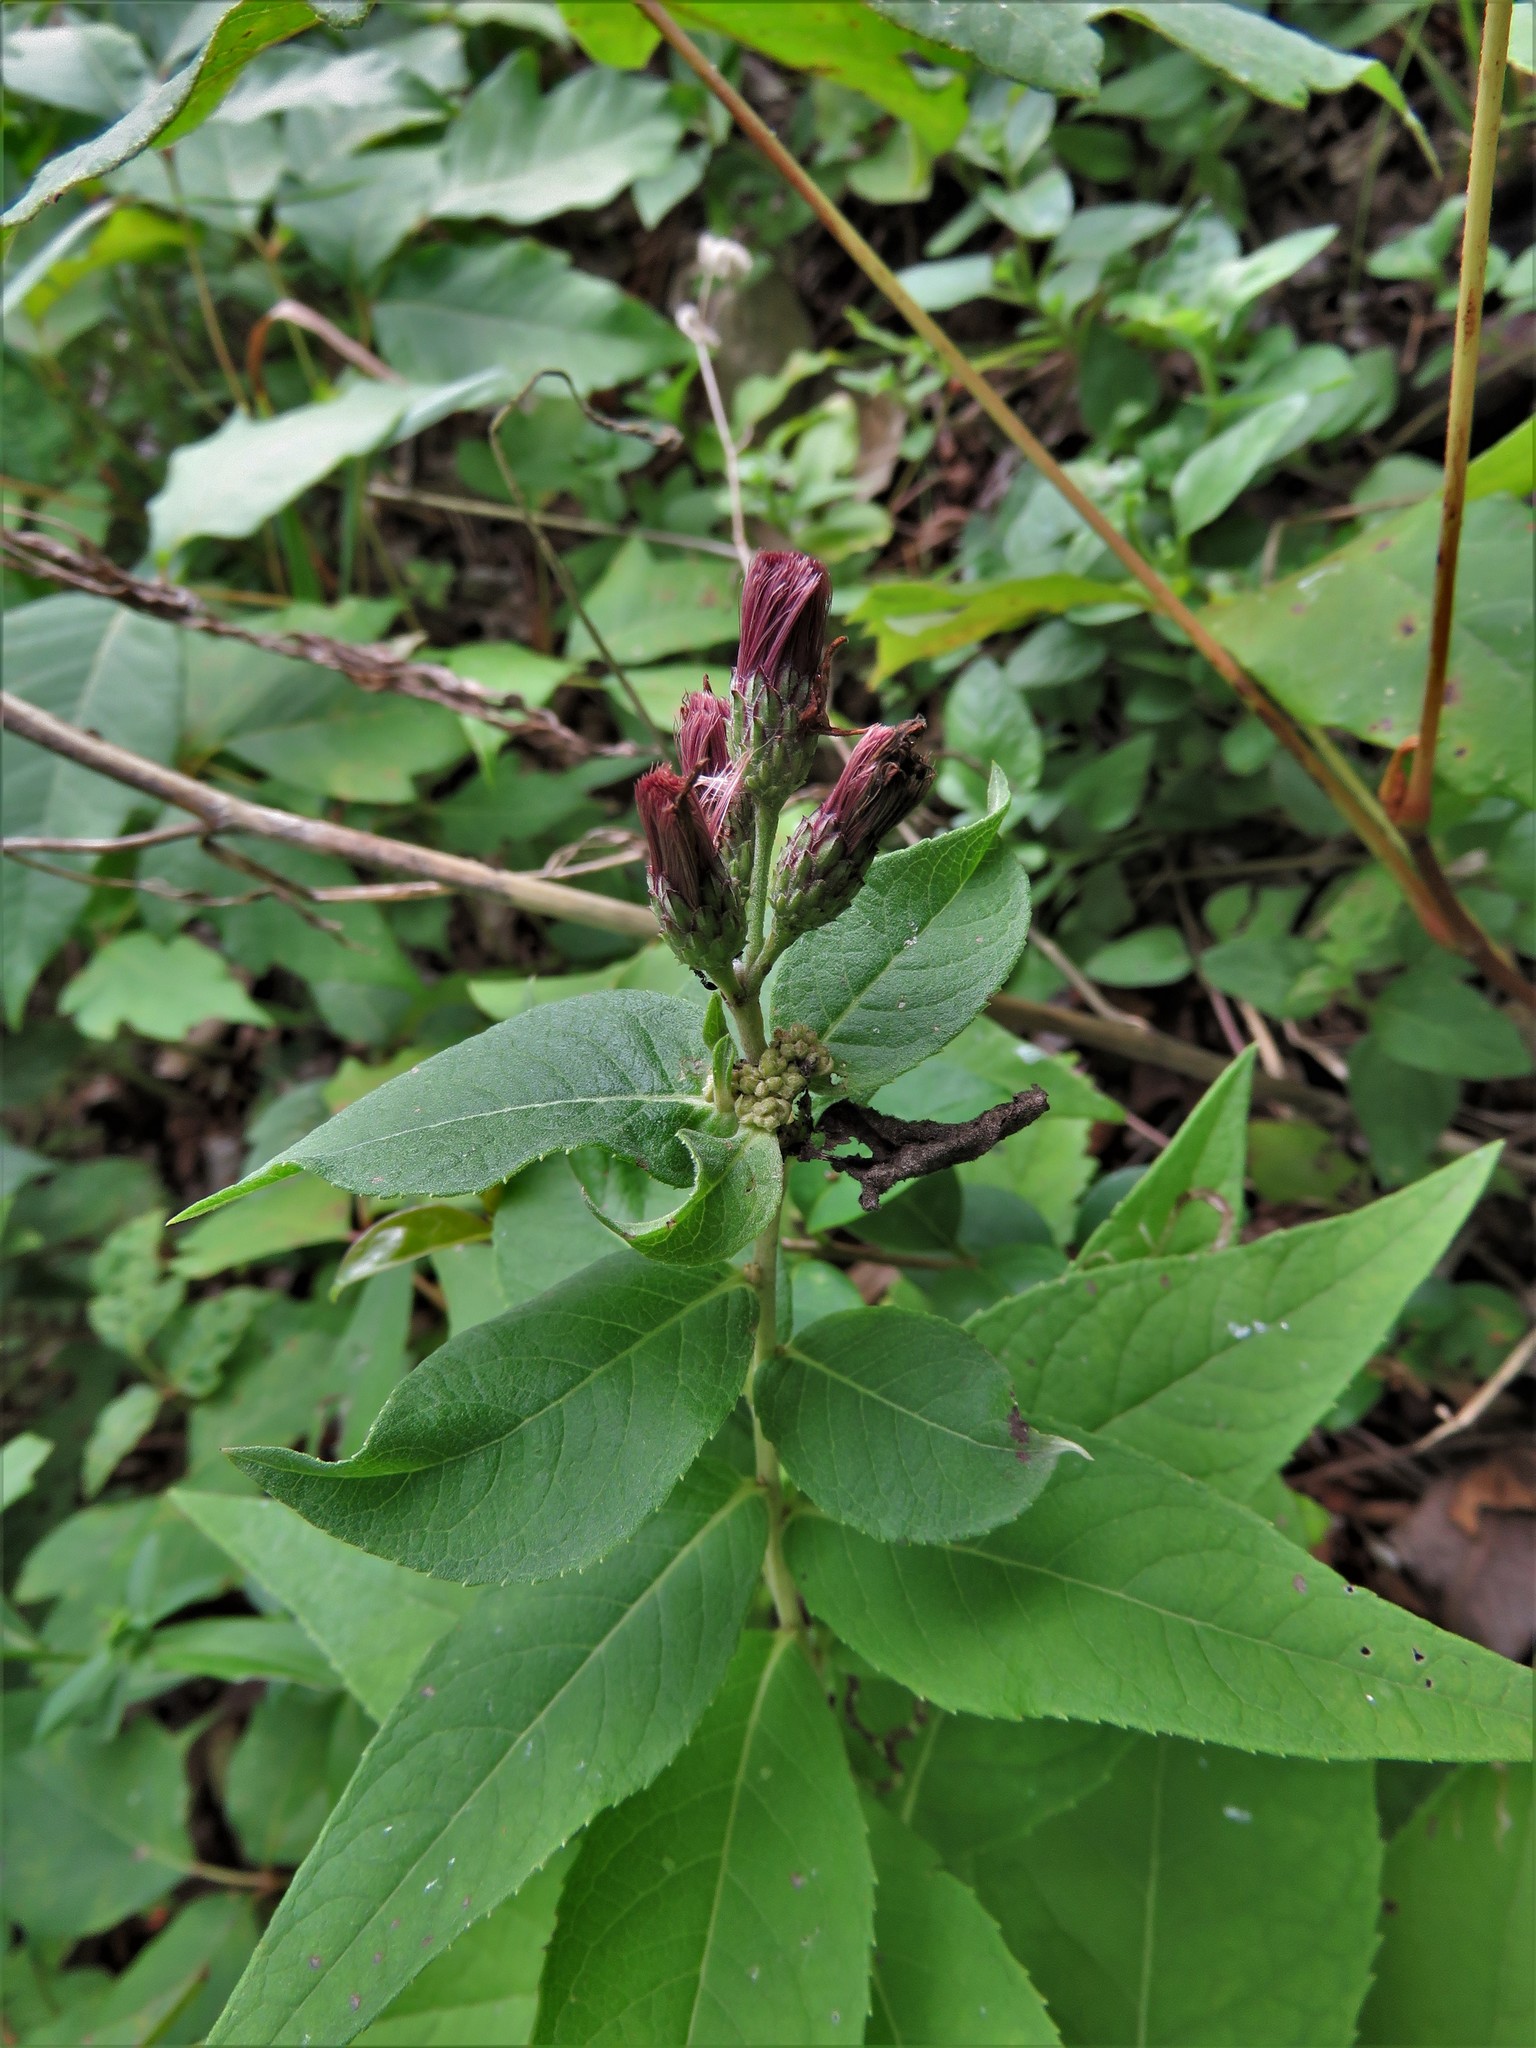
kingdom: Plantae
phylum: Tracheophyta
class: Magnoliopsida
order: Asterales
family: Asteraceae
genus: Vernonia
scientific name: Vernonia baldwinii
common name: Western ironweed
